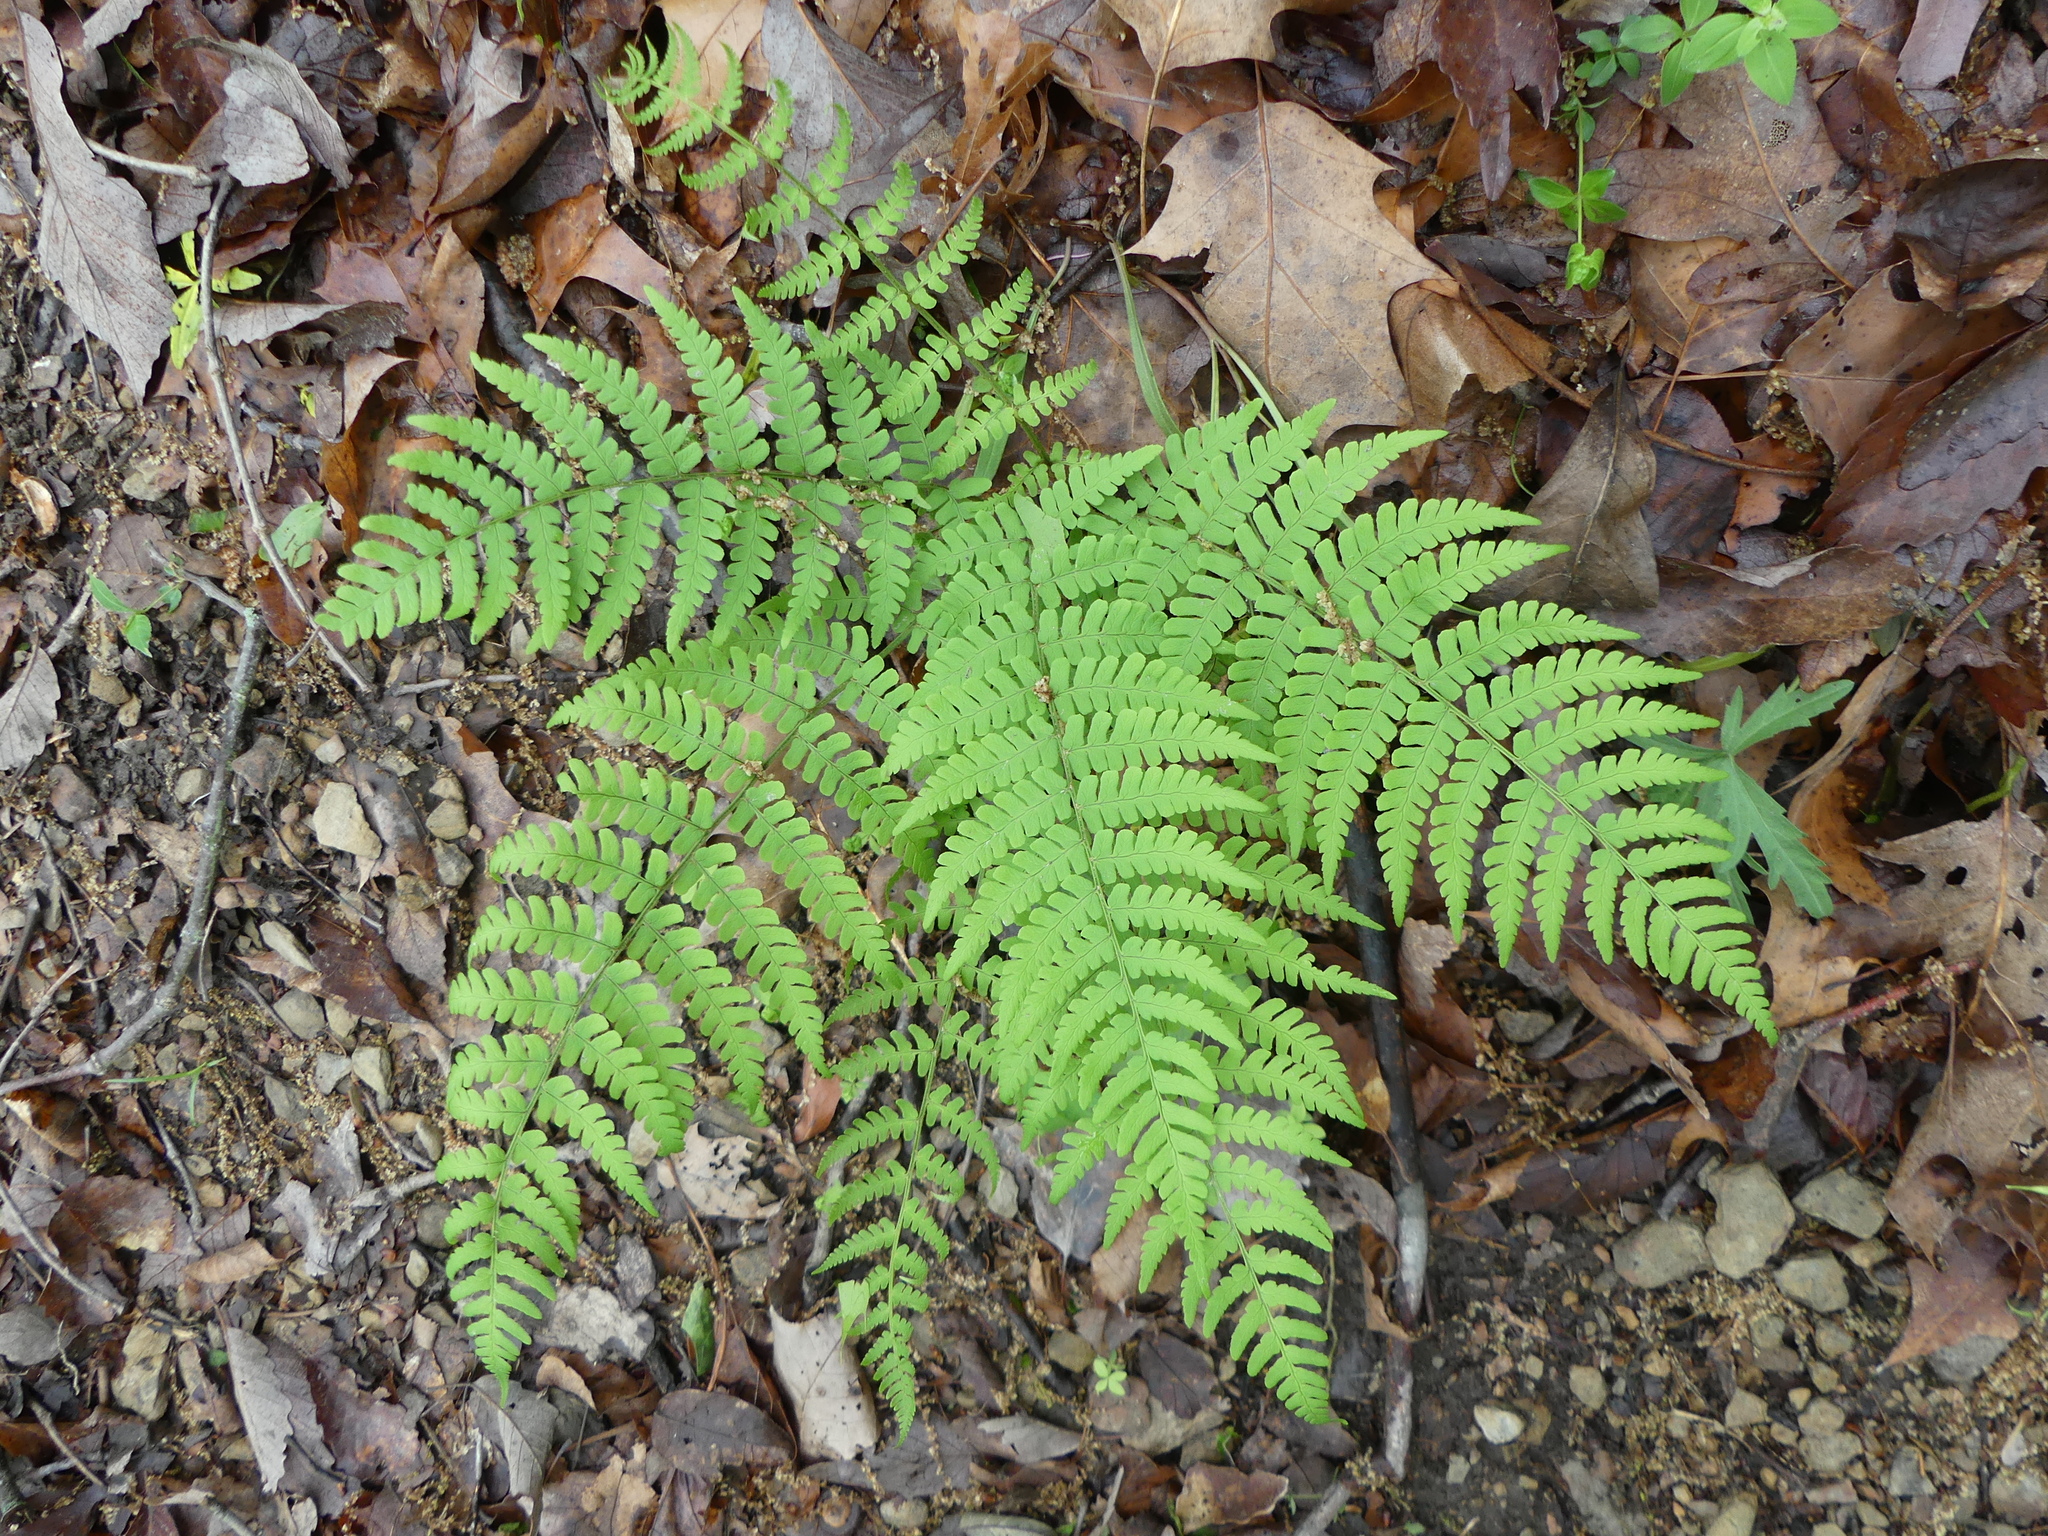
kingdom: Plantae
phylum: Tracheophyta
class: Polypodiopsida
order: Polypodiales
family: Dryopteridaceae
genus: Dryopteris
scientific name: Dryopteris marginalis
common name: Marginal wood fern
